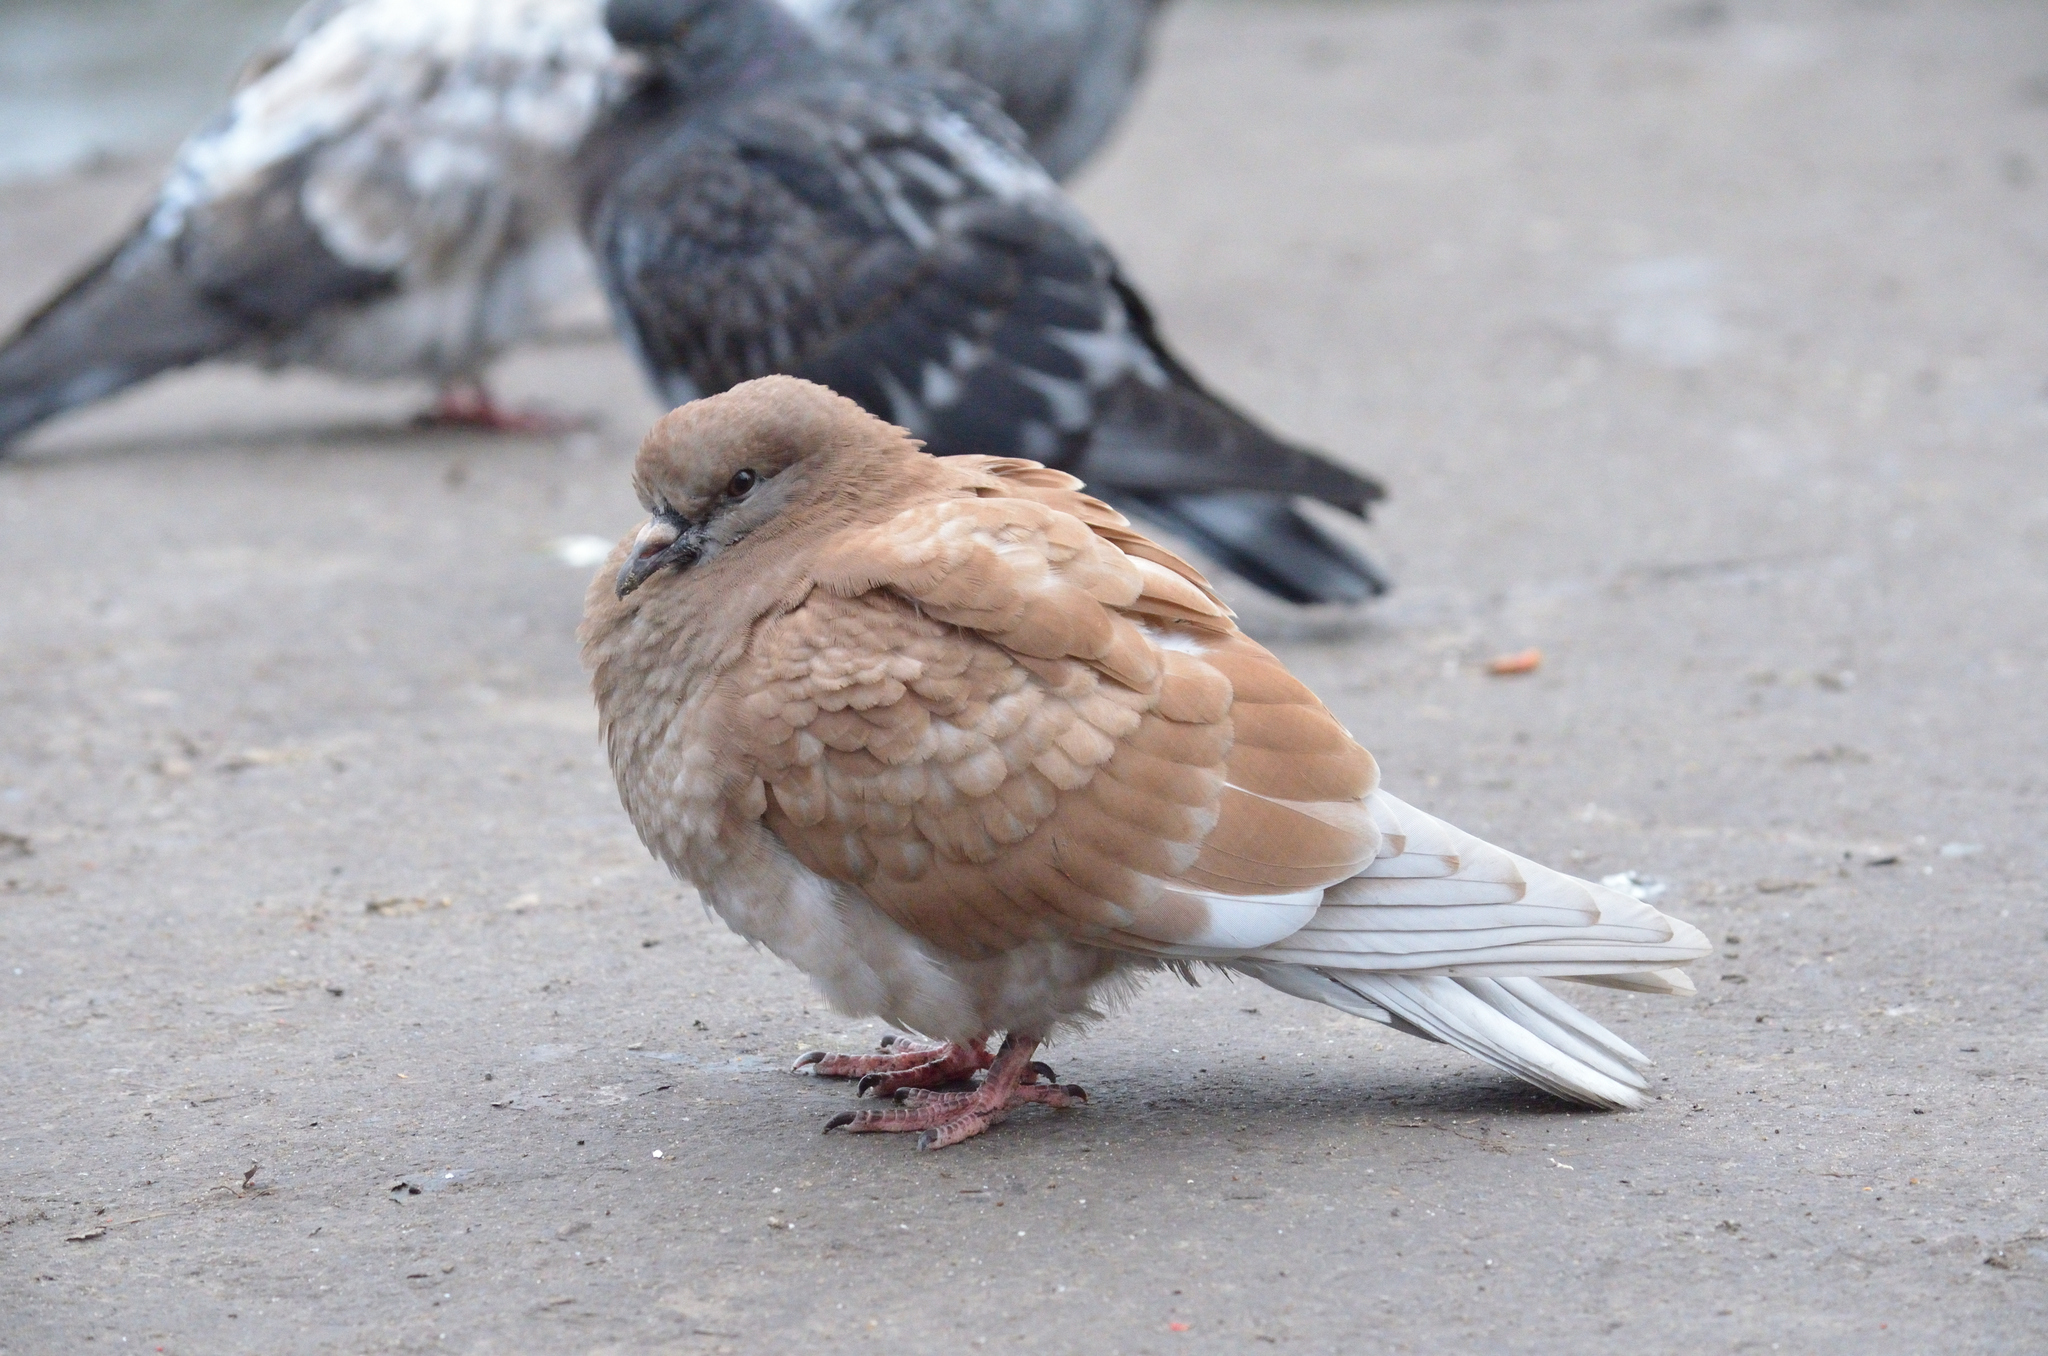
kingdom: Animalia
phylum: Chordata
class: Aves
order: Columbiformes
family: Columbidae
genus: Columba
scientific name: Columba livia
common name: Rock pigeon
